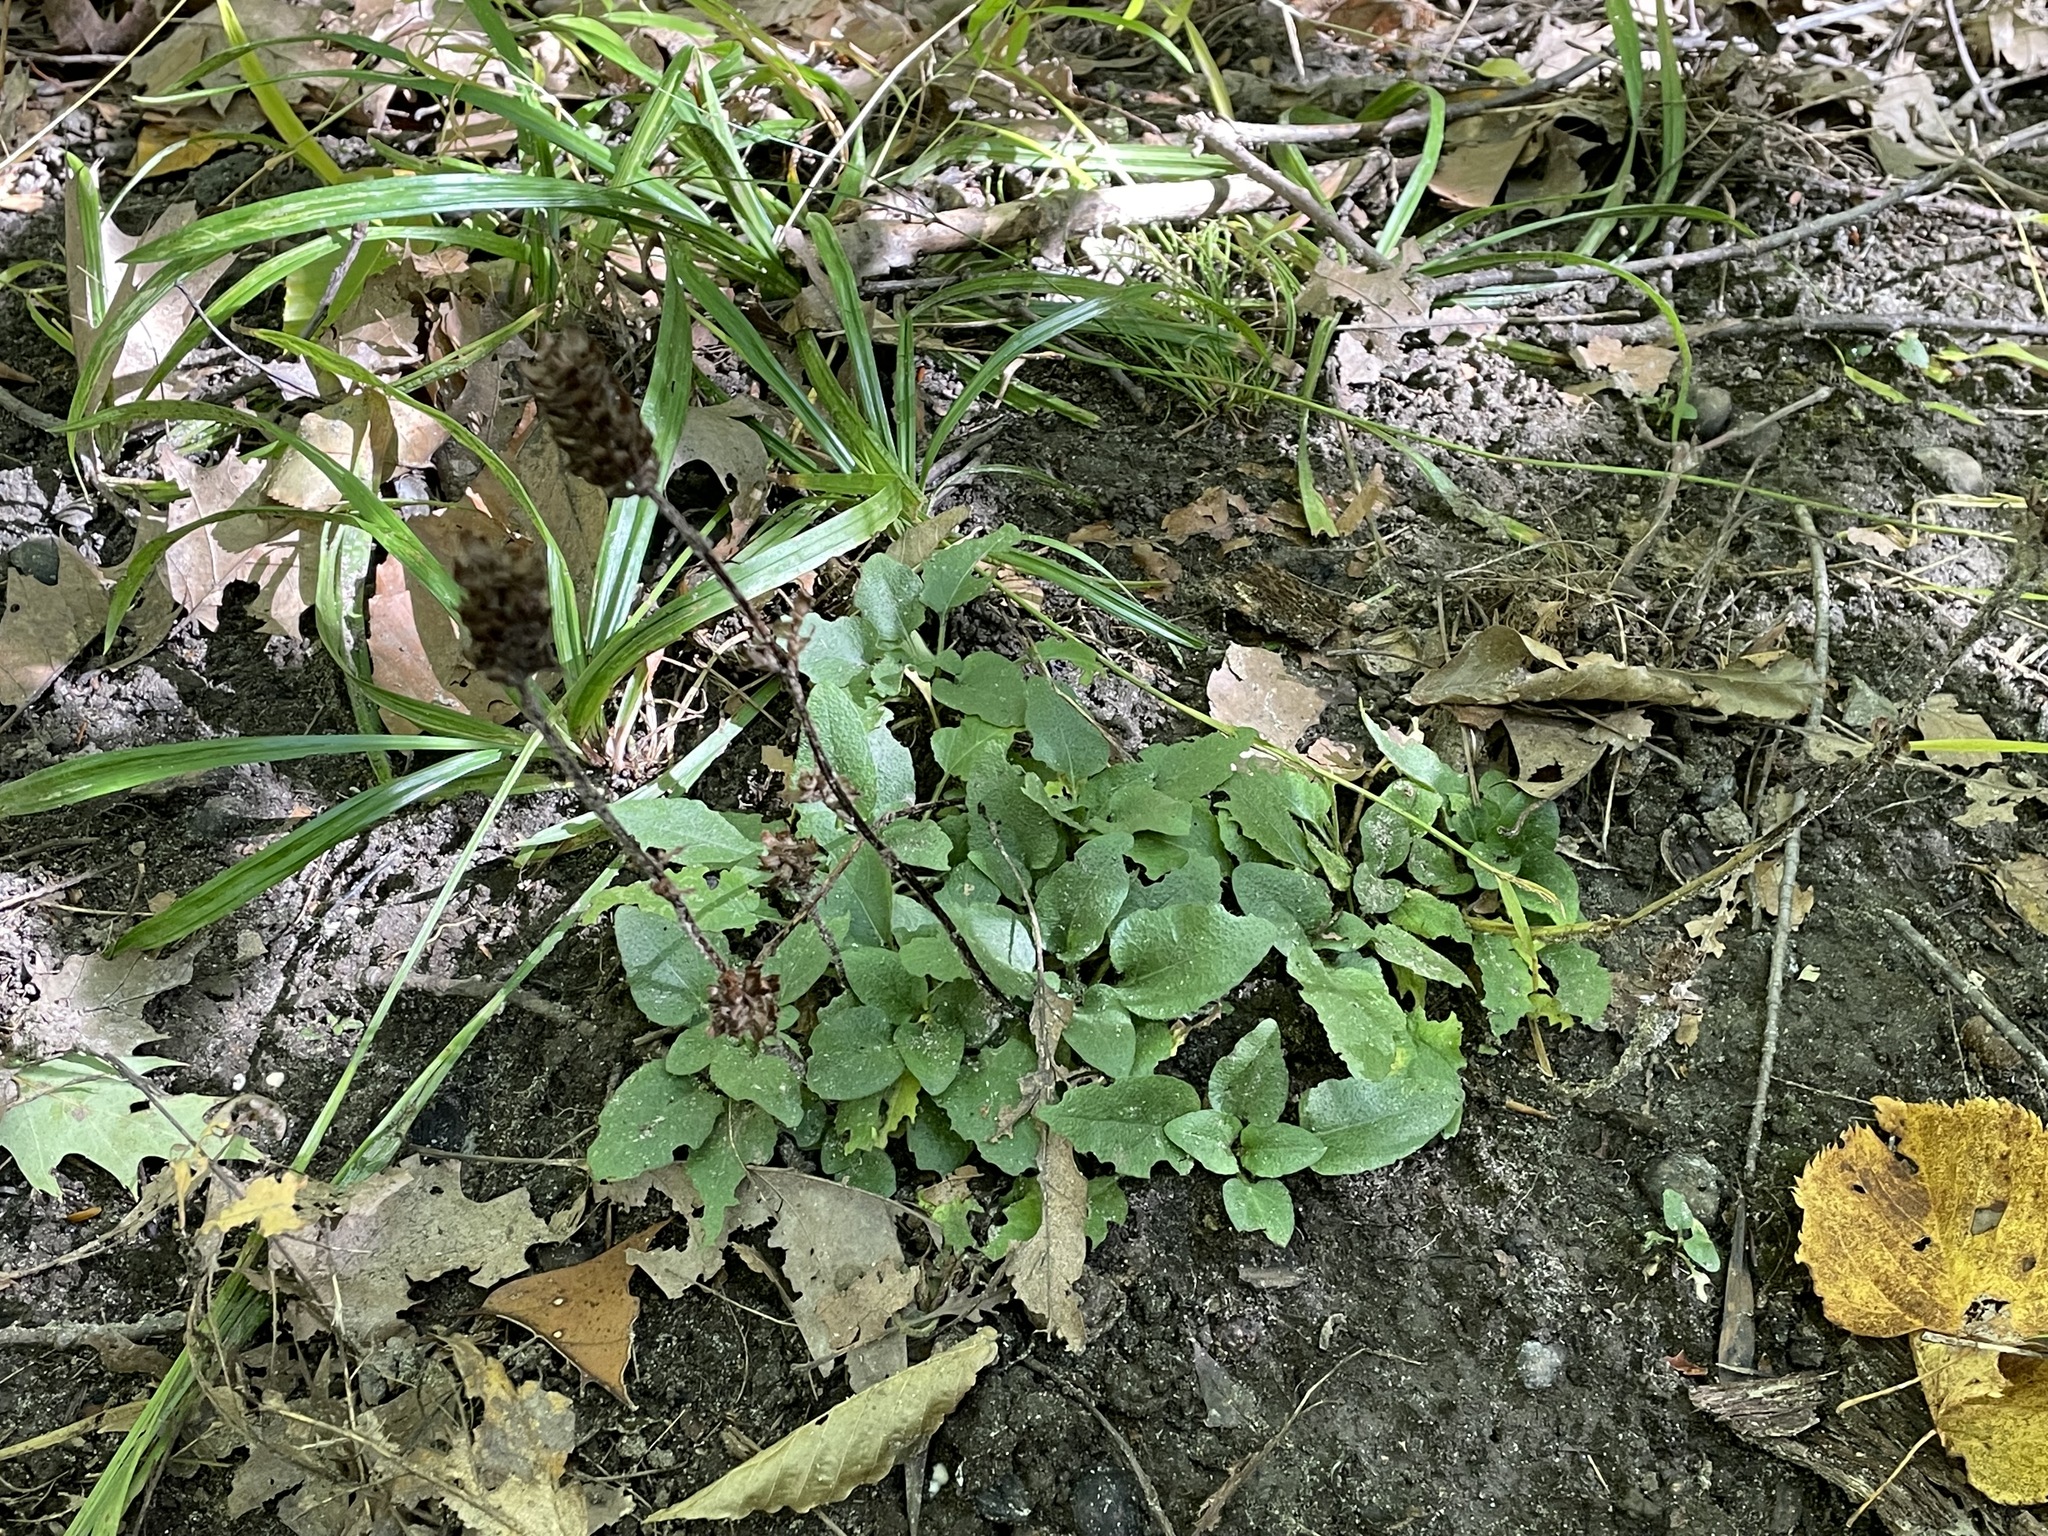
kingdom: Plantae
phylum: Tracheophyta
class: Magnoliopsida
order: Lamiales
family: Lamiaceae
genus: Prunella
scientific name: Prunella vulgaris
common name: Heal-all
